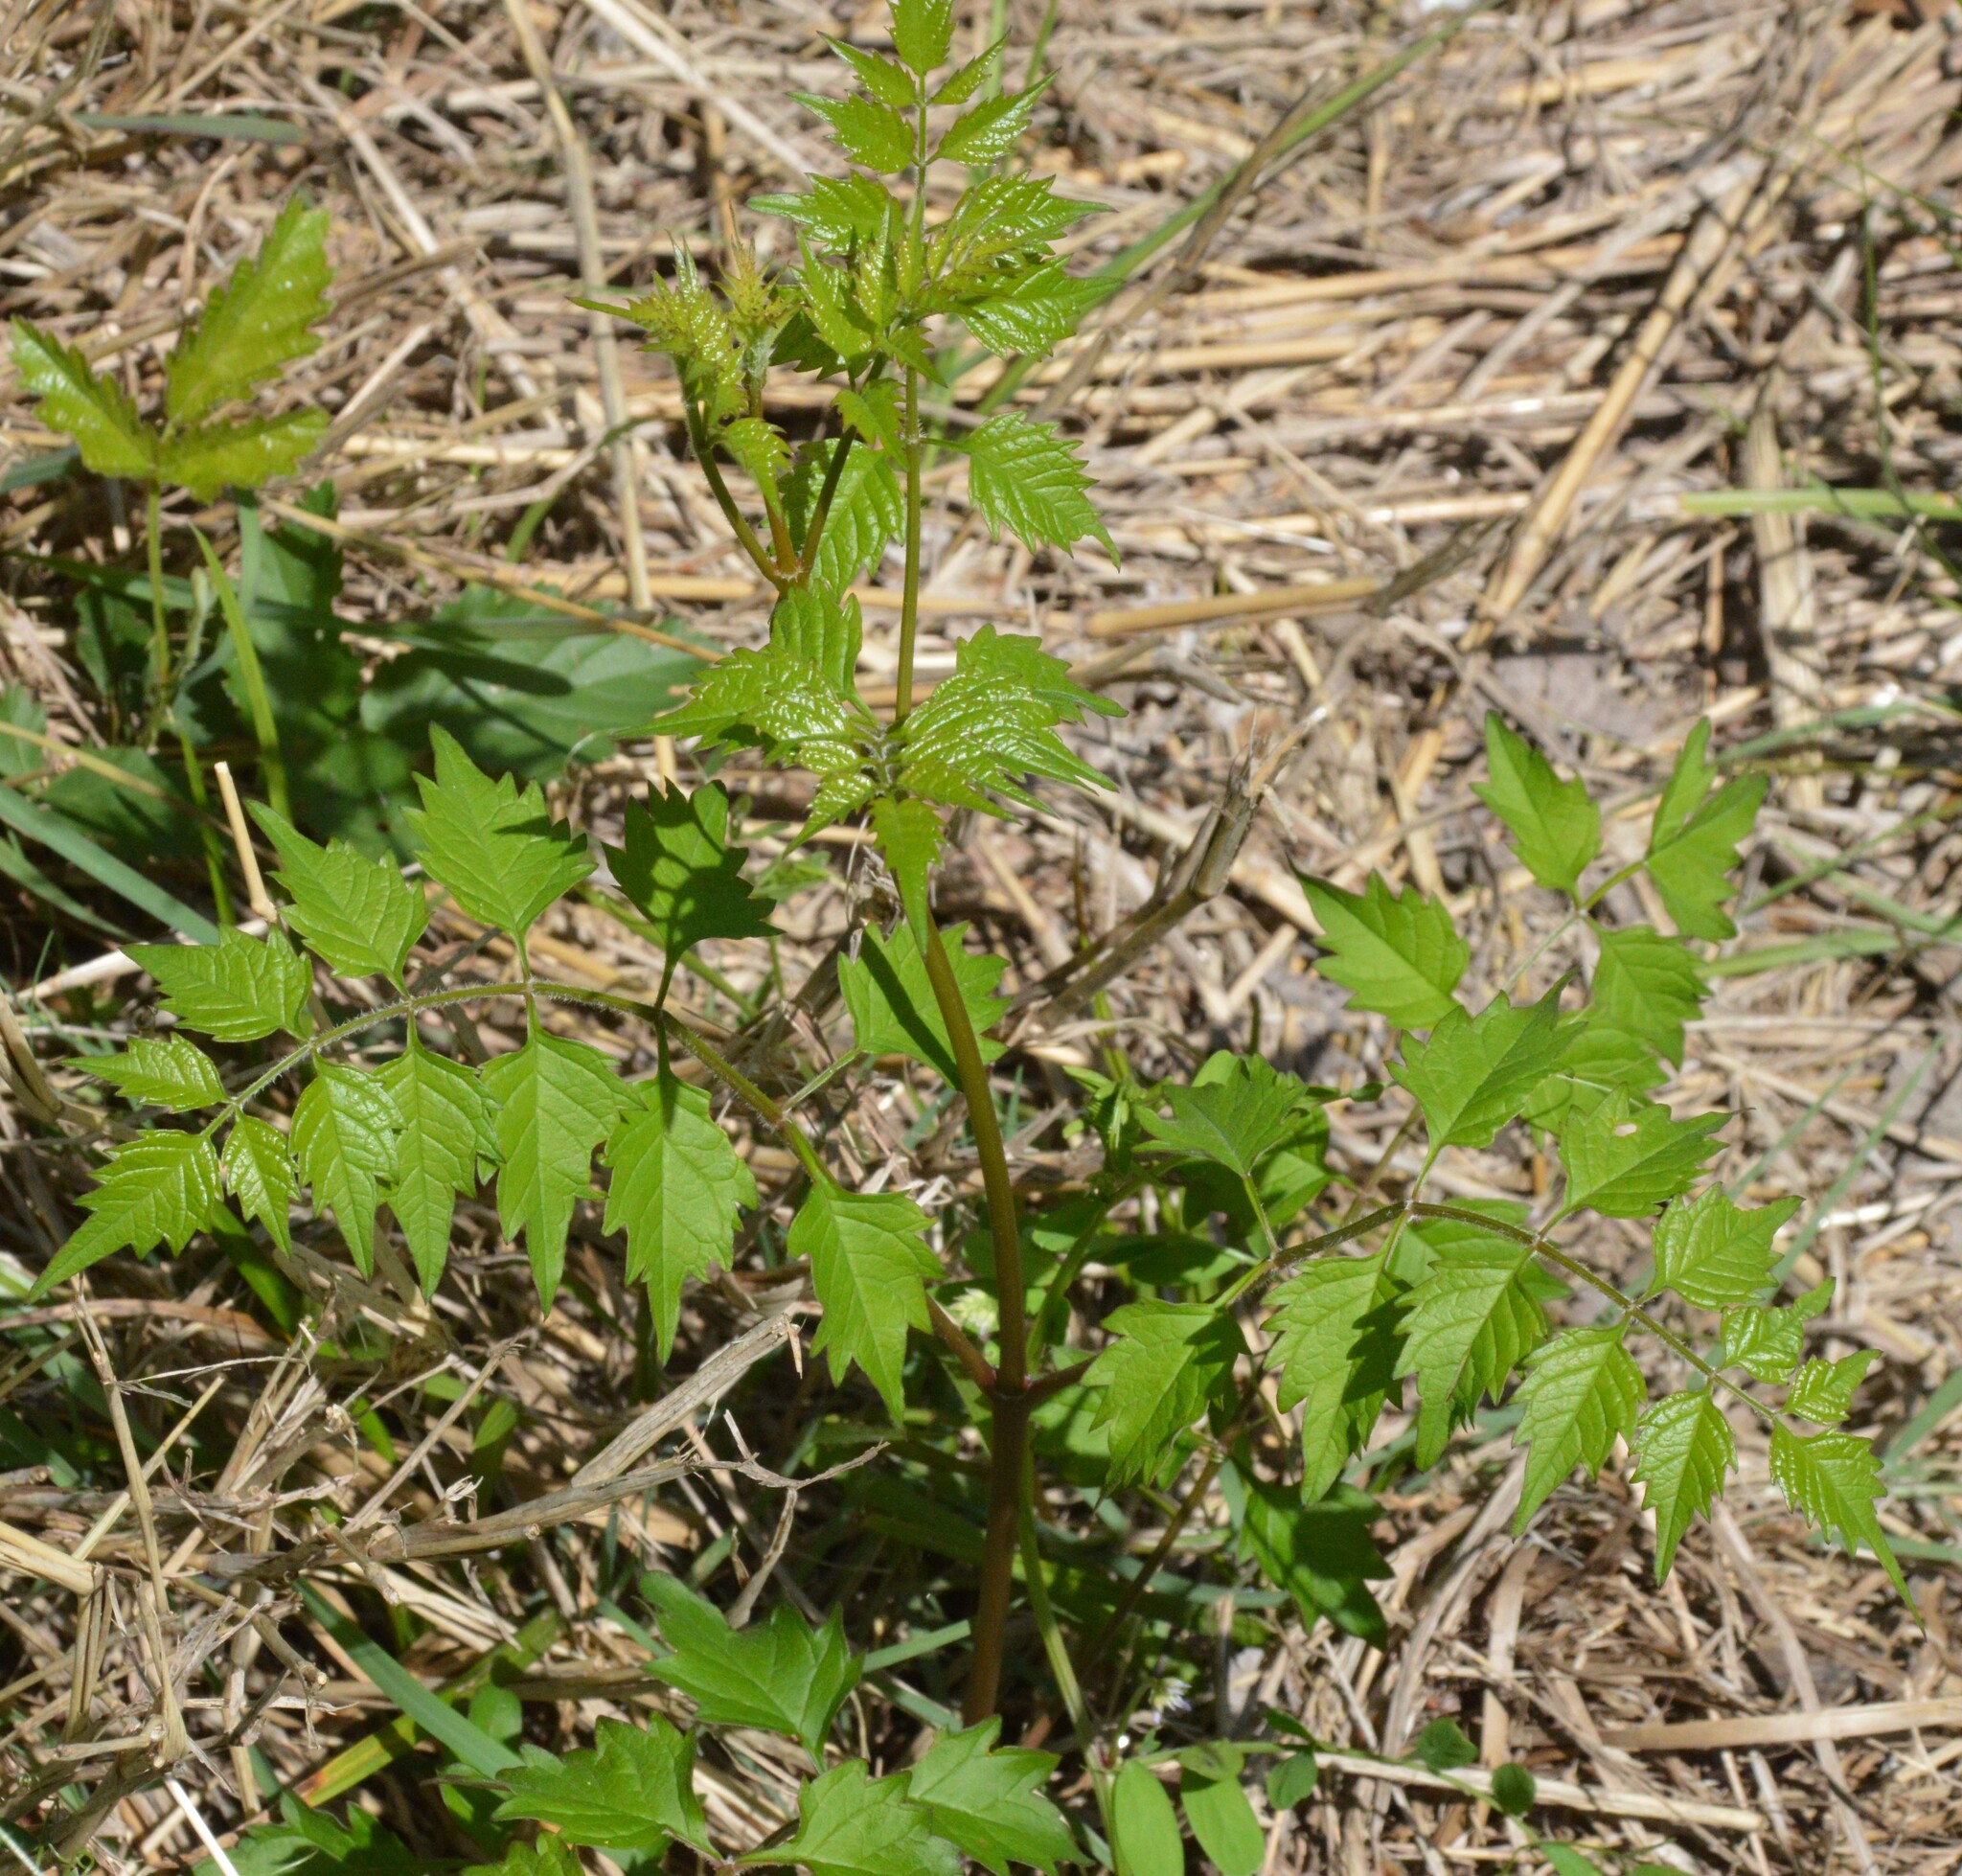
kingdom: Plantae
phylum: Tracheophyta
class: Magnoliopsida
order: Lamiales
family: Bignoniaceae
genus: Campsis
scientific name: Campsis radicans
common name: Trumpet-creeper
